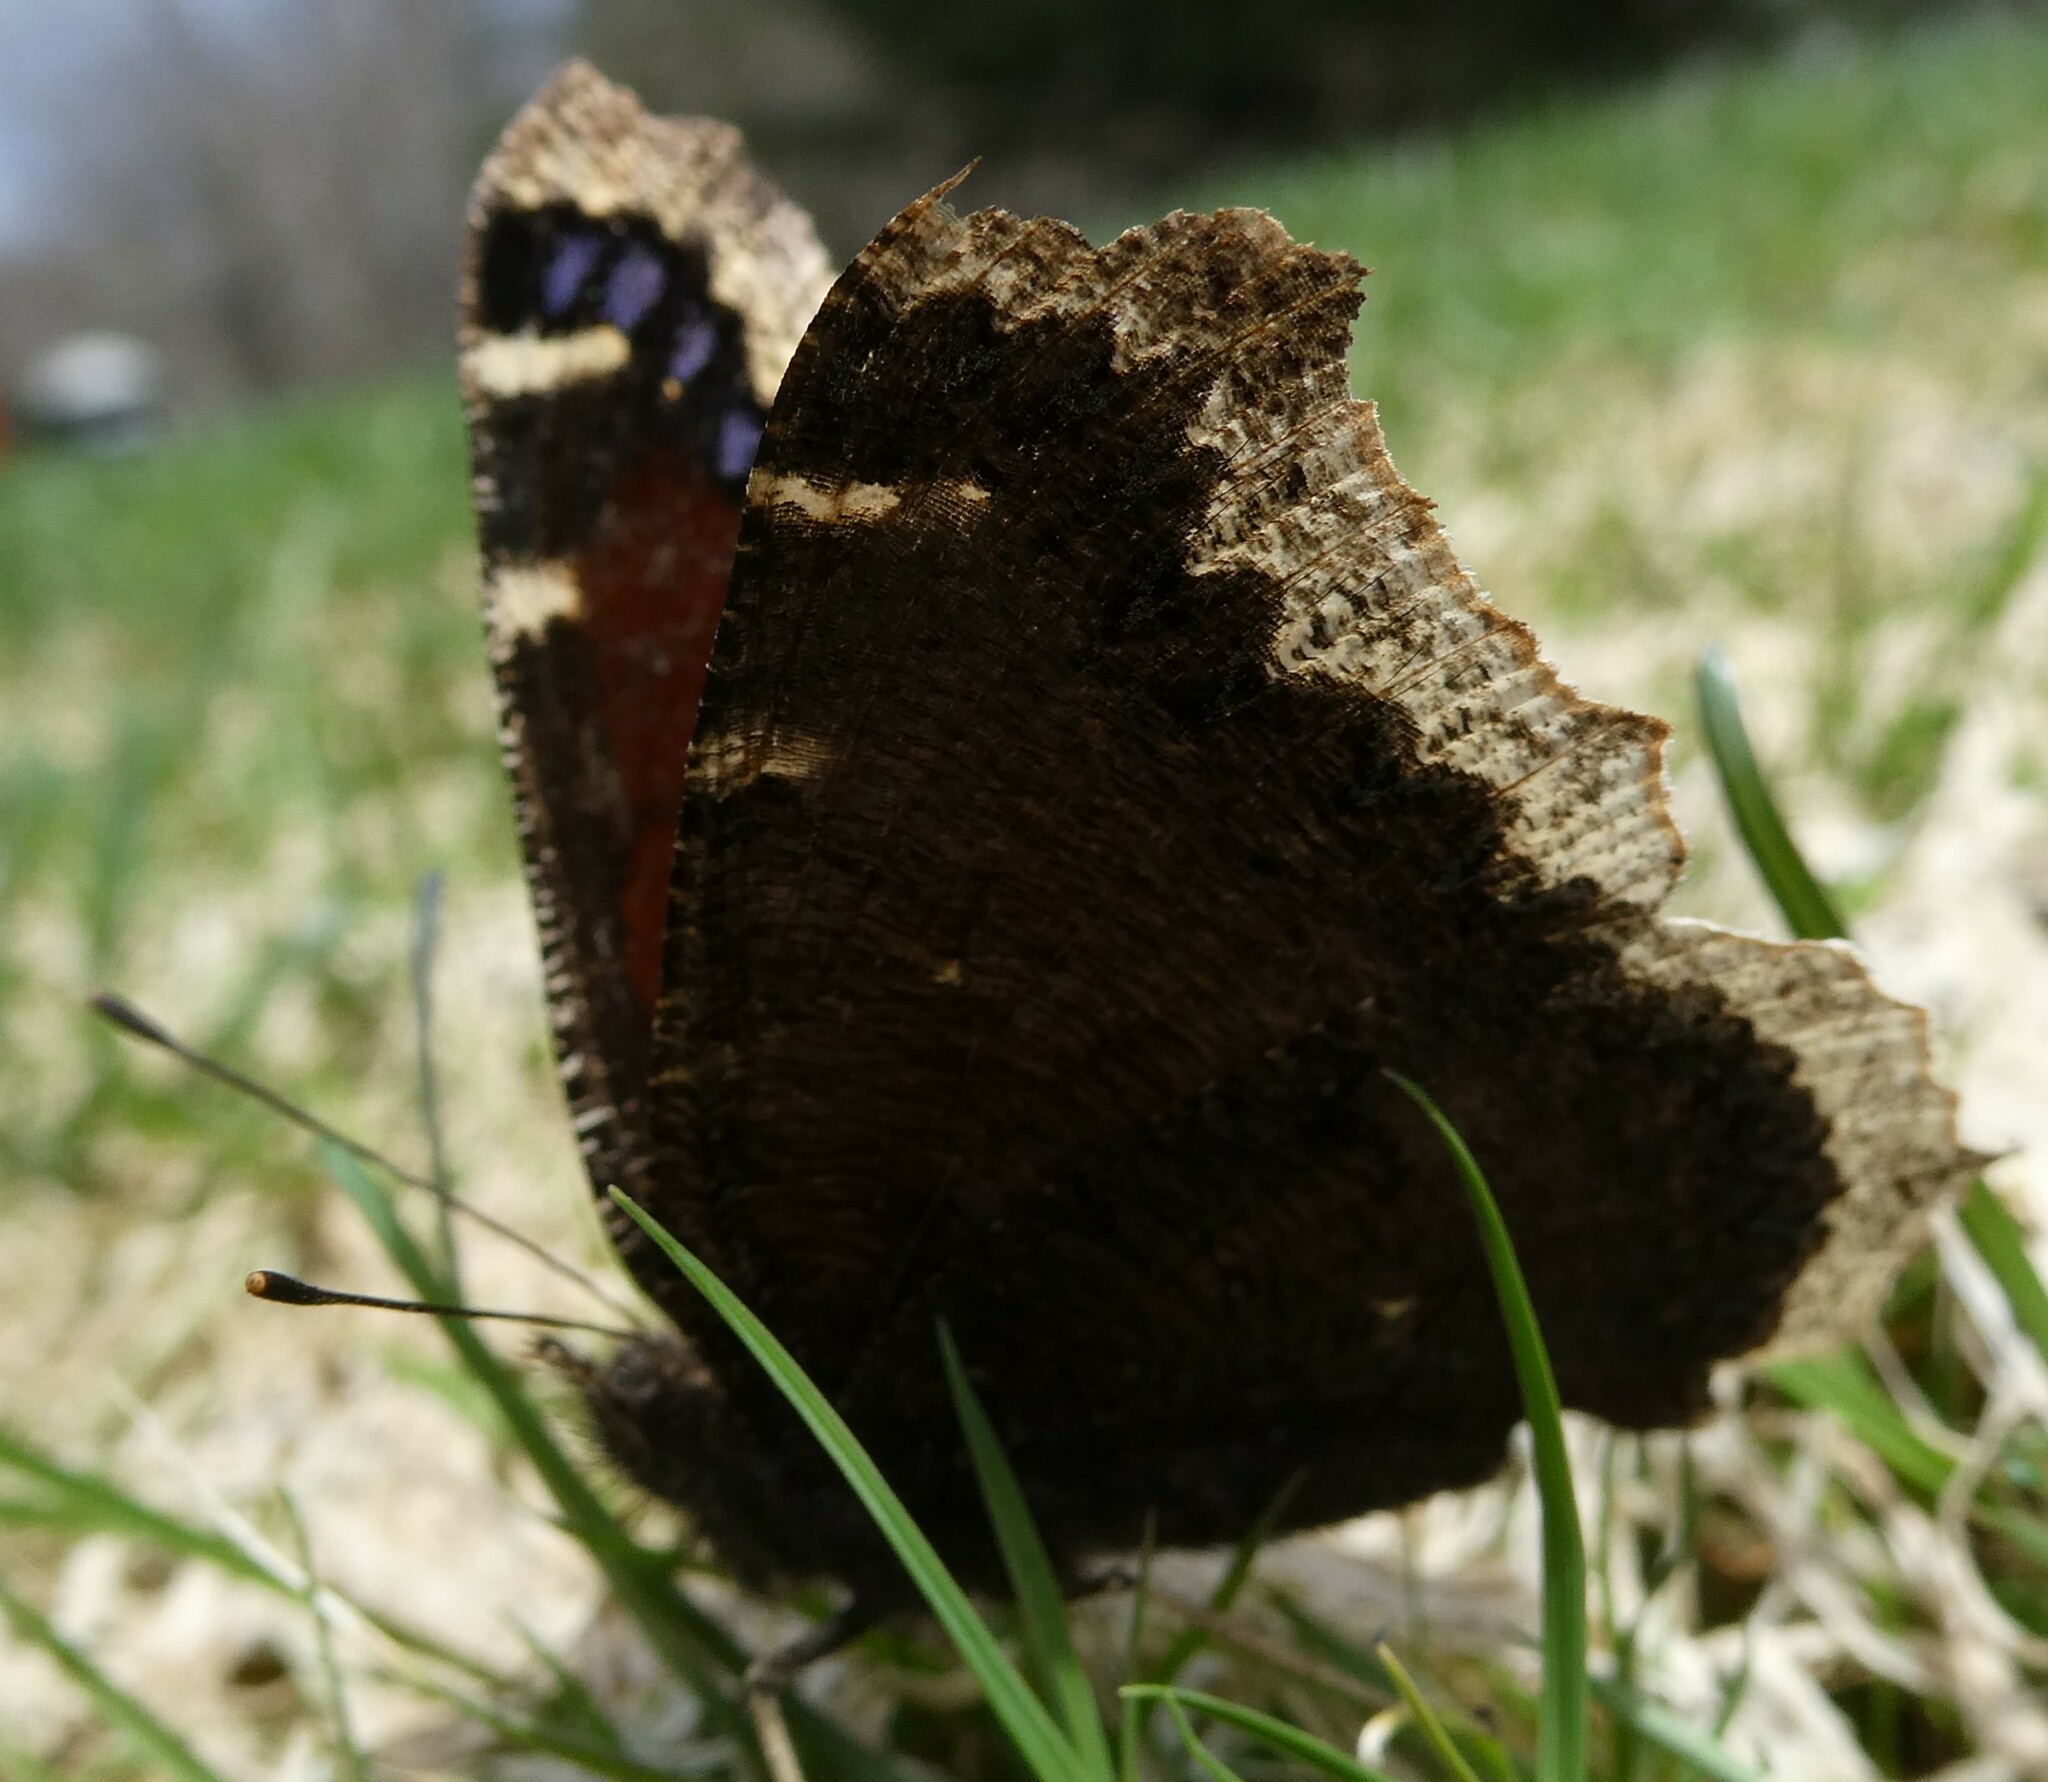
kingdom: Animalia
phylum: Arthropoda
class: Insecta
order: Lepidoptera
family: Nymphalidae
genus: Nymphalis
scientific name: Nymphalis antiopa
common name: Camberwell beauty
